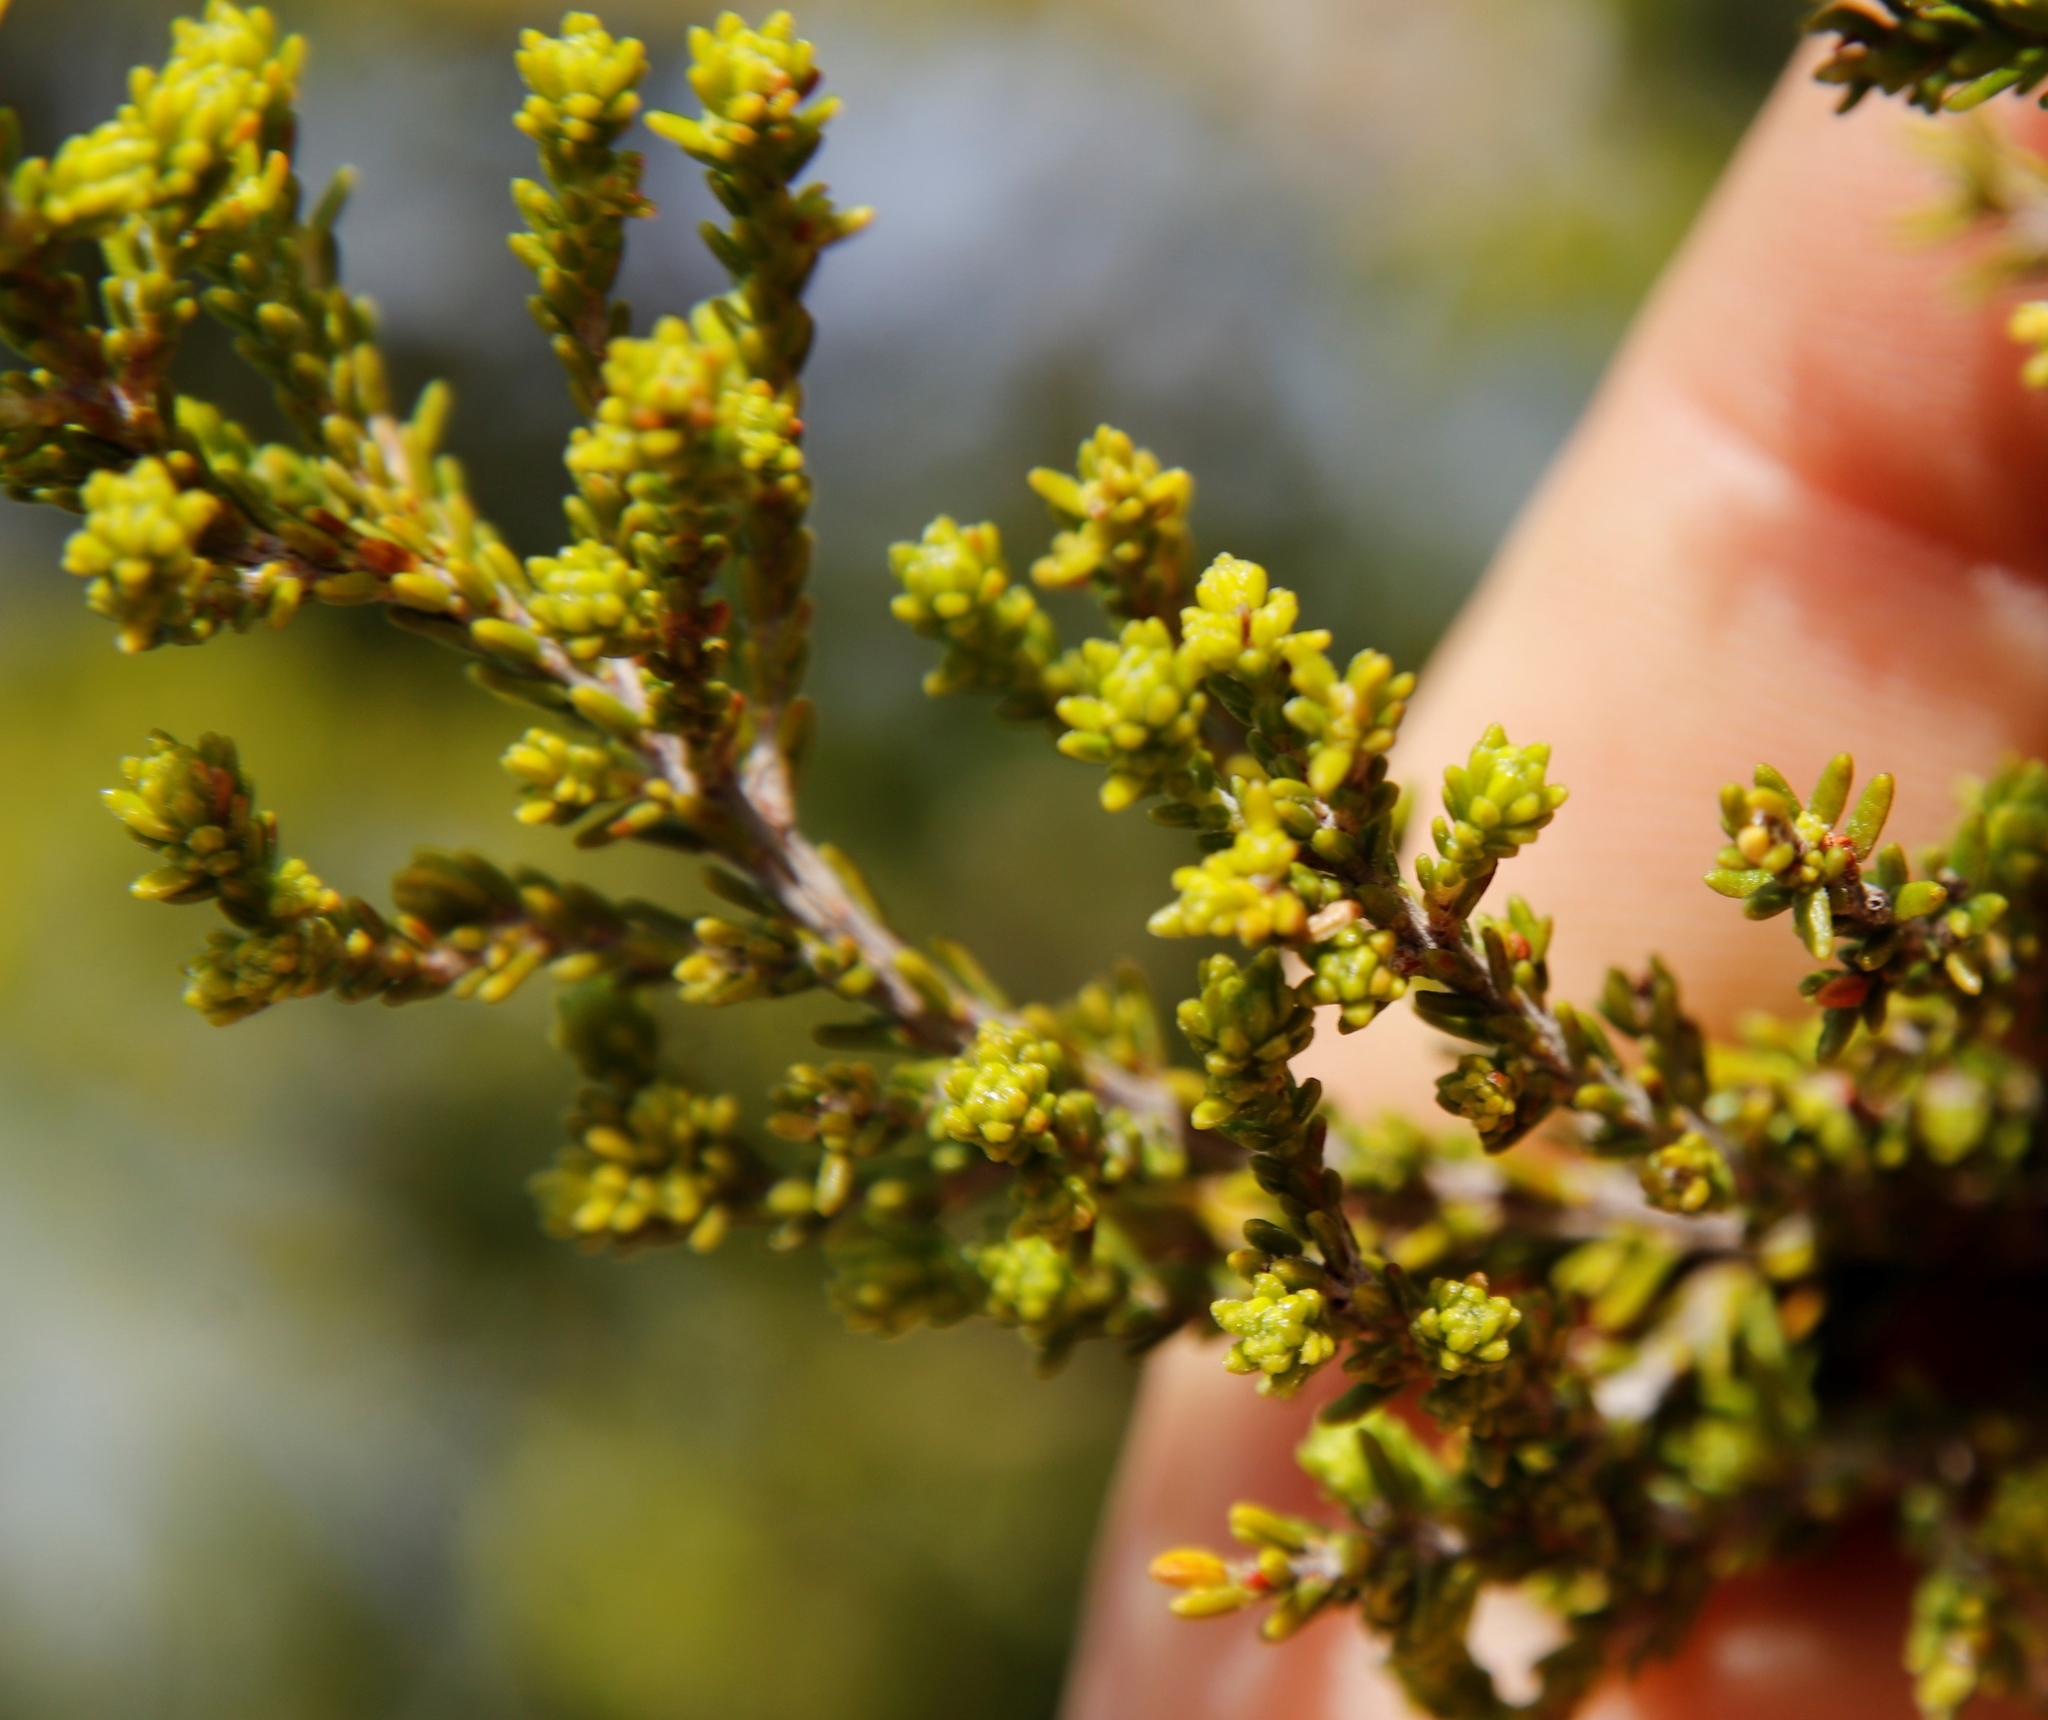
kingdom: Plantae
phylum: Tracheophyta
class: Magnoliopsida
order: Ericales
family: Ericaceae
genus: Erica
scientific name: Erica tristis
